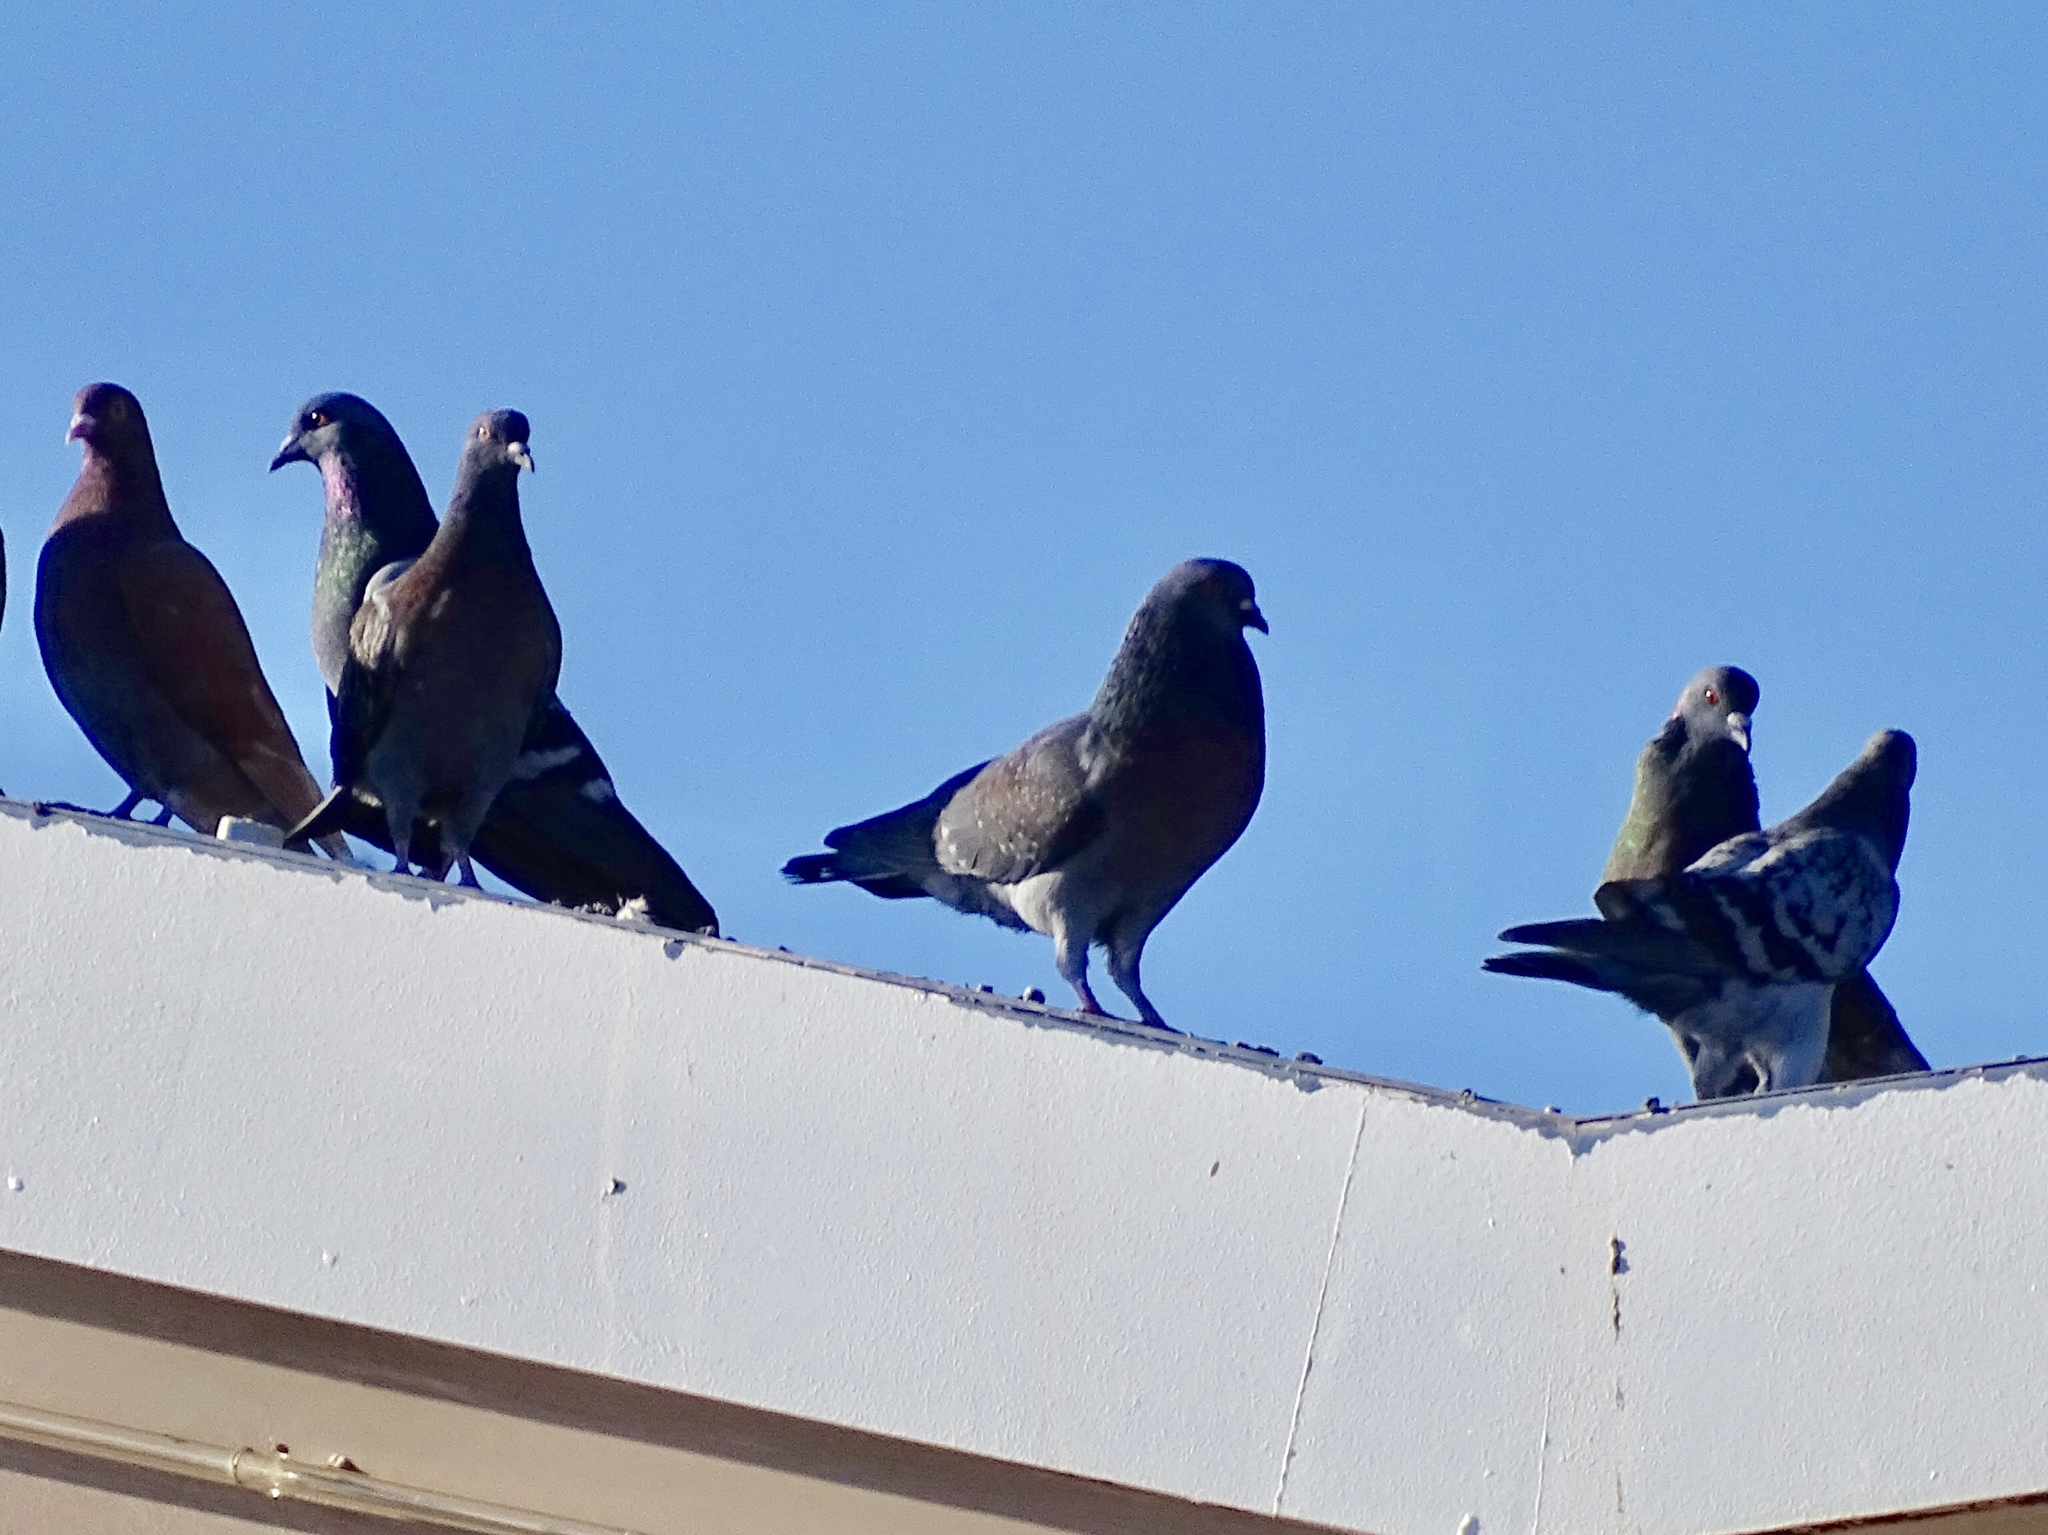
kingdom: Animalia
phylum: Chordata
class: Aves
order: Columbiformes
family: Columbidae
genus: Columba
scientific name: Columba livia
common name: Rock pigeon
